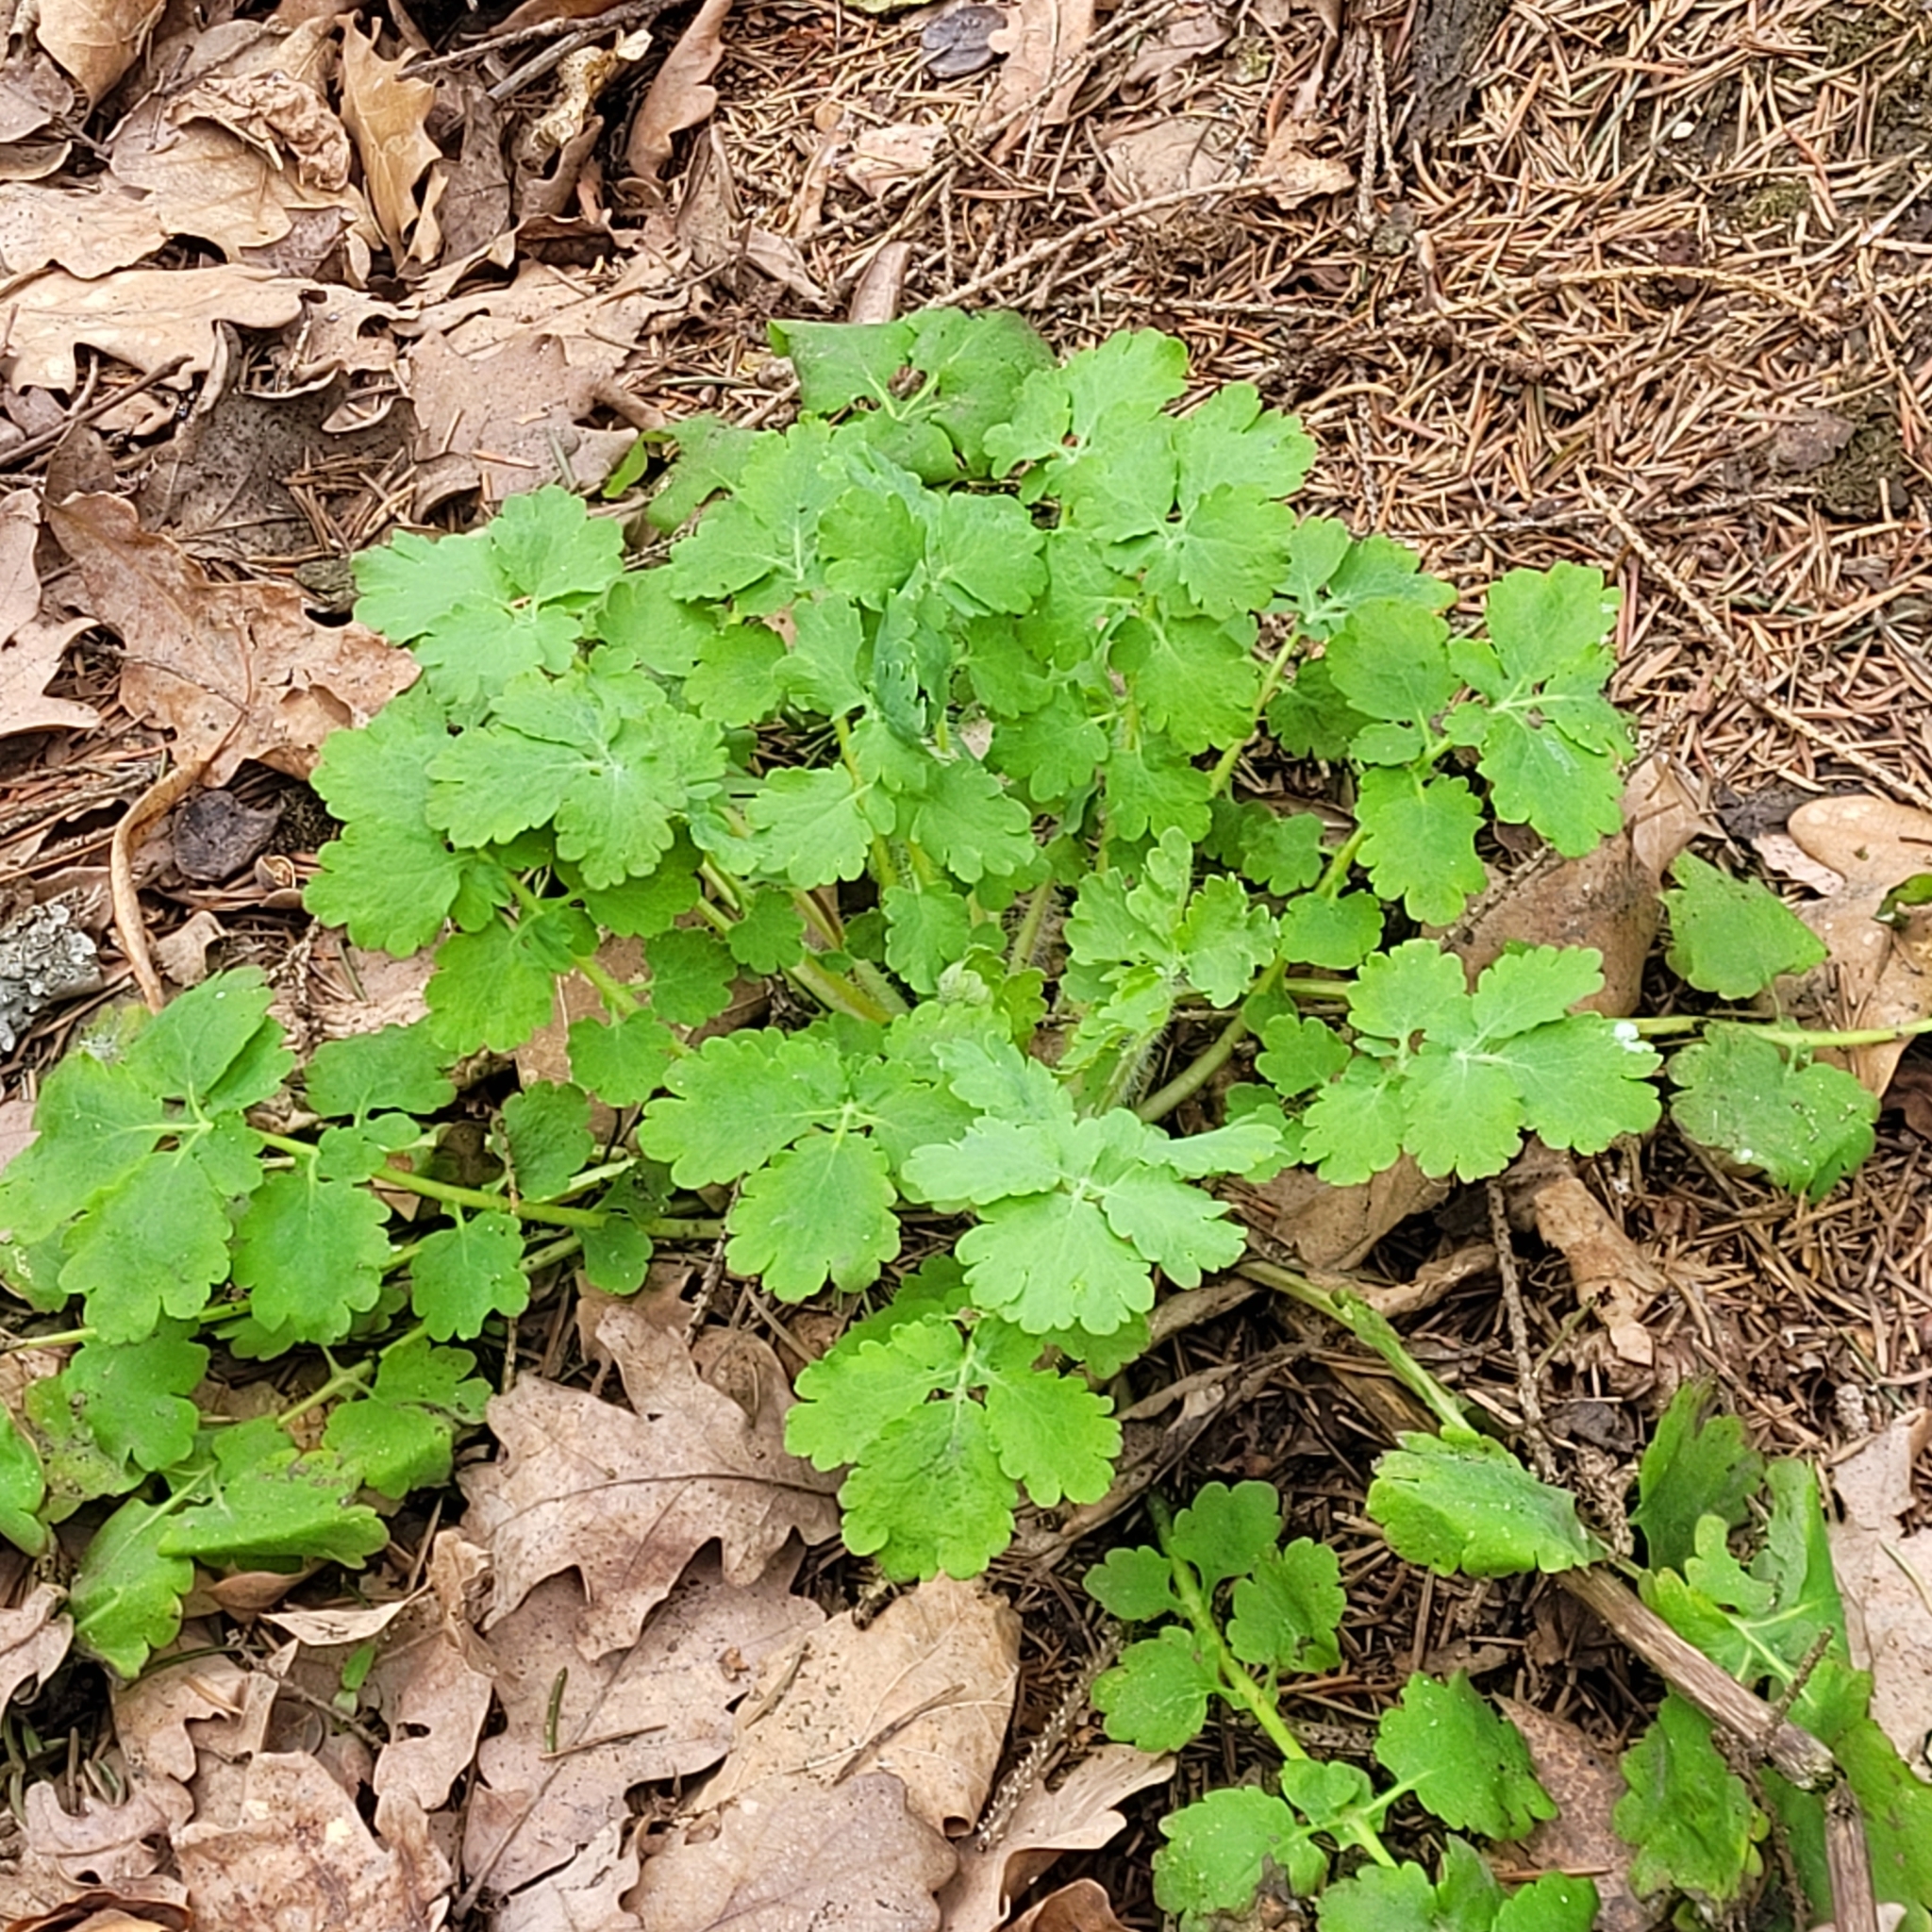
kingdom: Plantae
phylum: Tracheophyta
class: Magnoliopsida
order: Ranunculales
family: Papaveraceae
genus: Chelidonium
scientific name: Chelidonium majus
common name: Greater celandine
